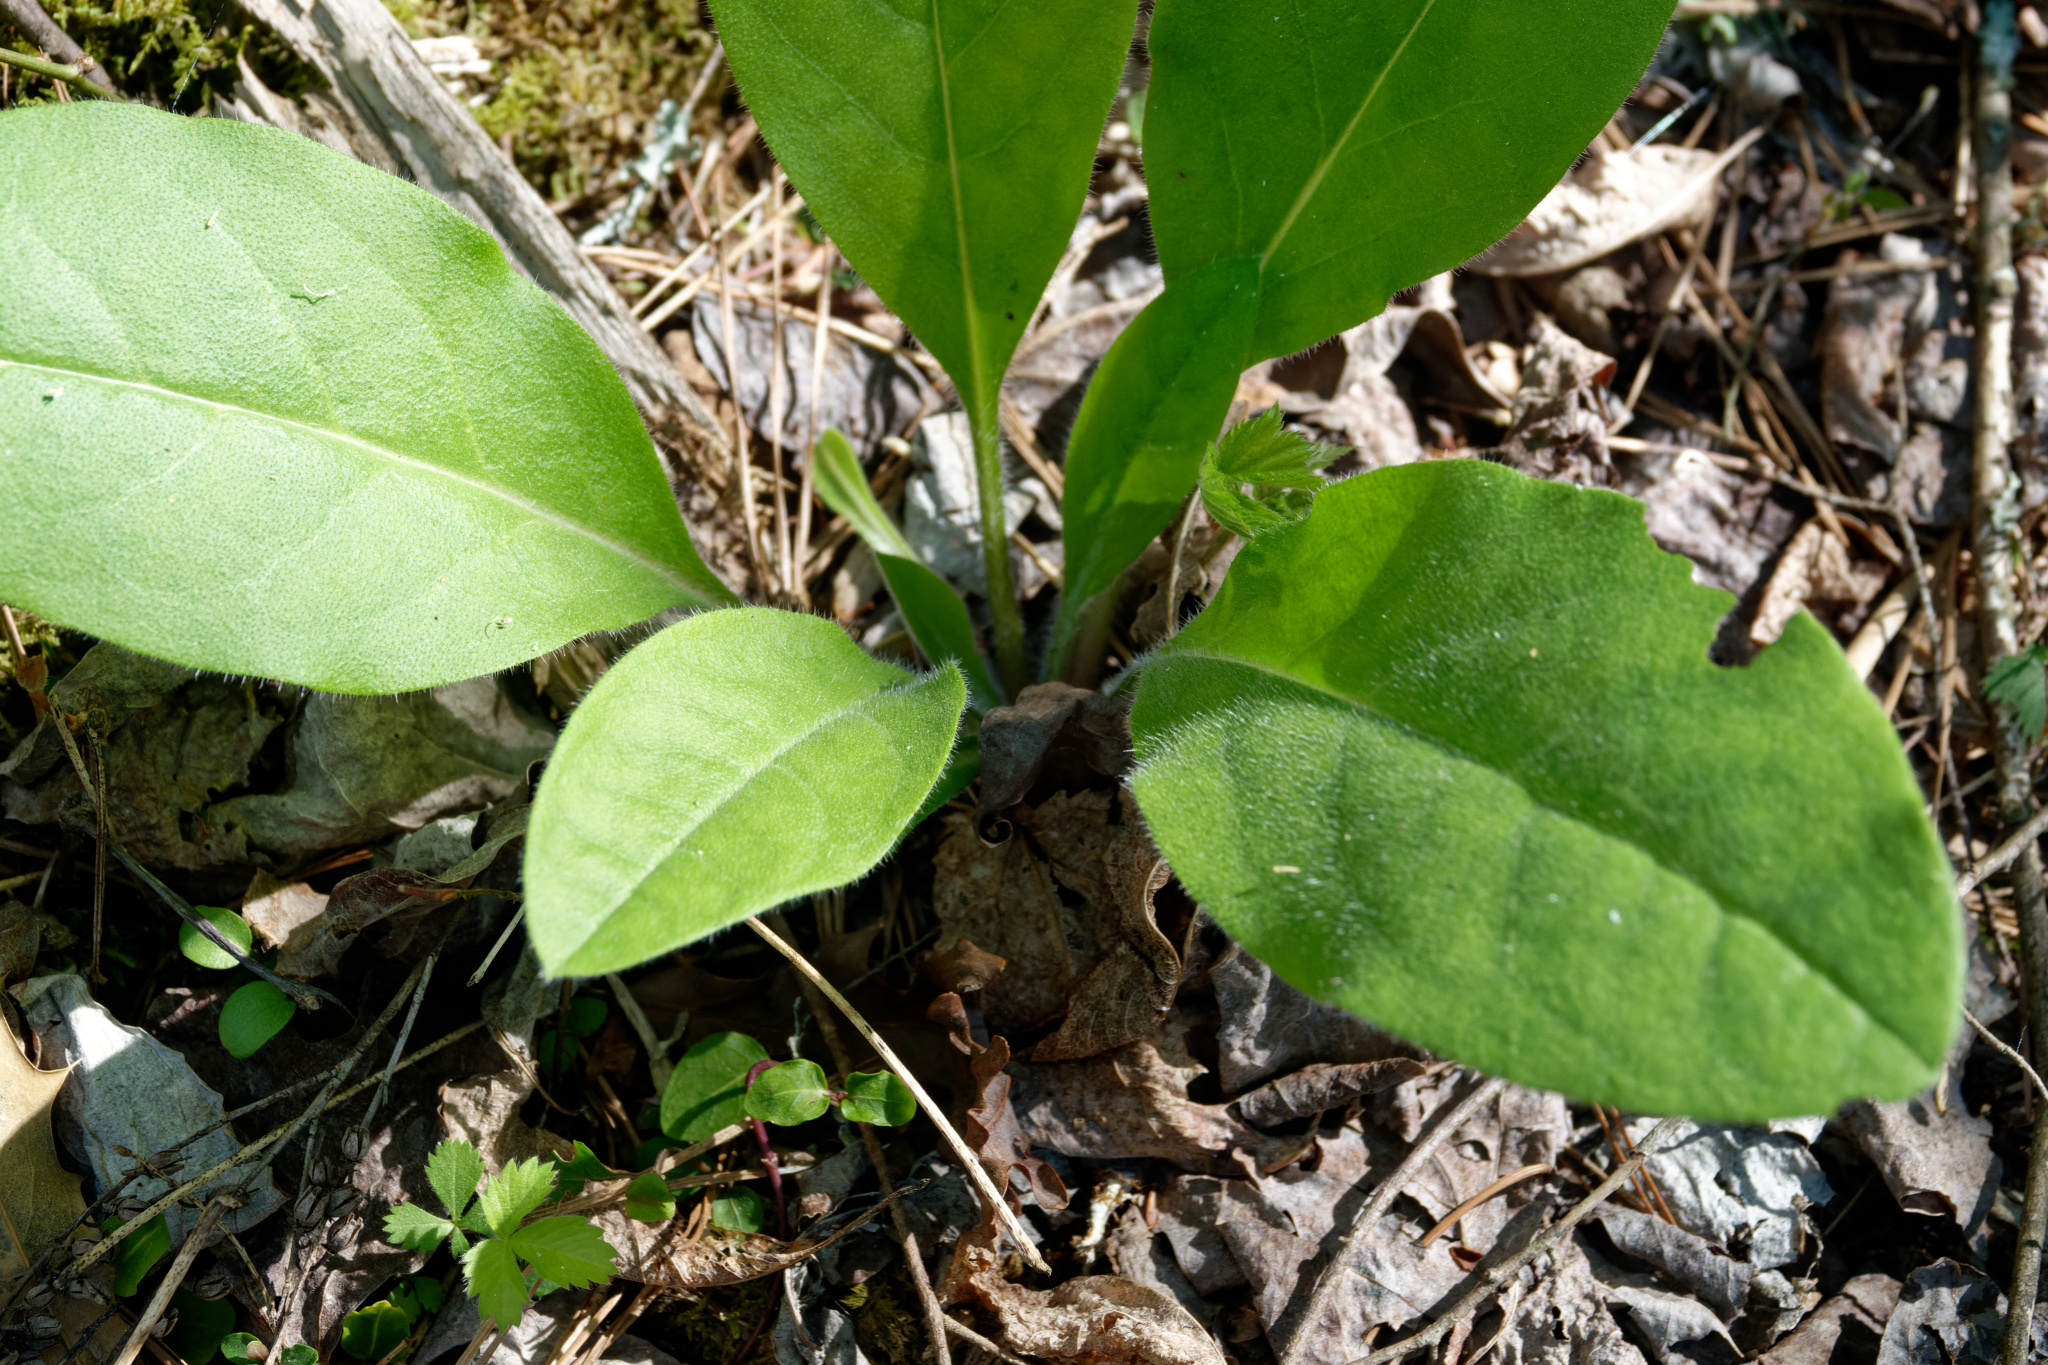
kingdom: Plantae
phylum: Tracheophyta
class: Magnoliopsida
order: Boraginales
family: Boraginaceae
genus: Andersonglossum
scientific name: Andersonglossum virginianum
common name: Wild comfrey
